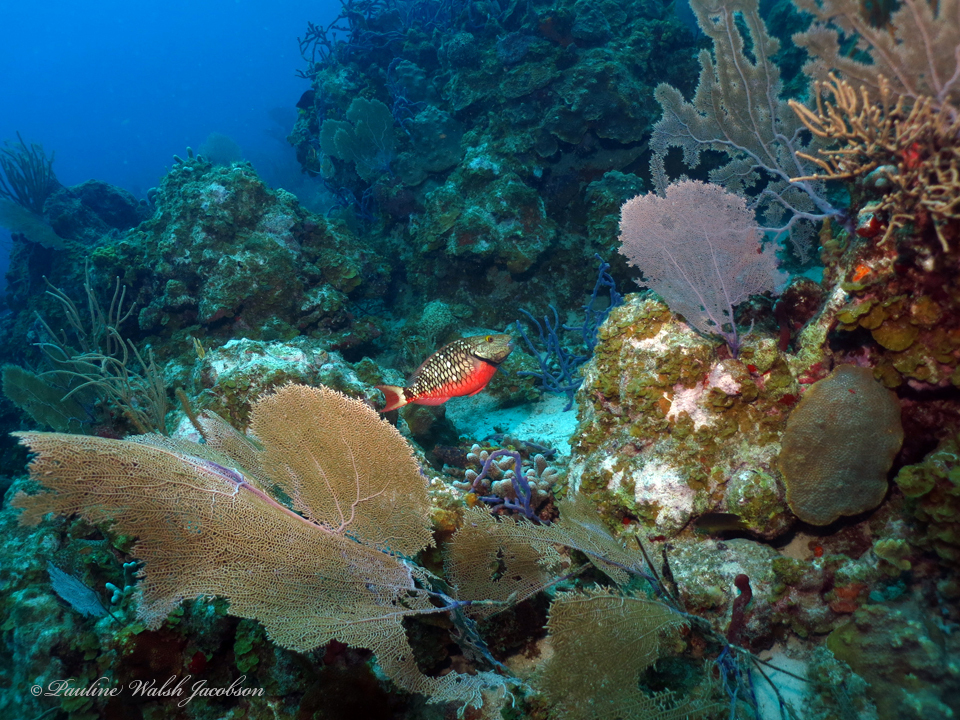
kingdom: Animalia
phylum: Chordata
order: Perciformes
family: Scaridae
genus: Sparisoma
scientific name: Sparisoma viride
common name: Stoplight parrotfish
